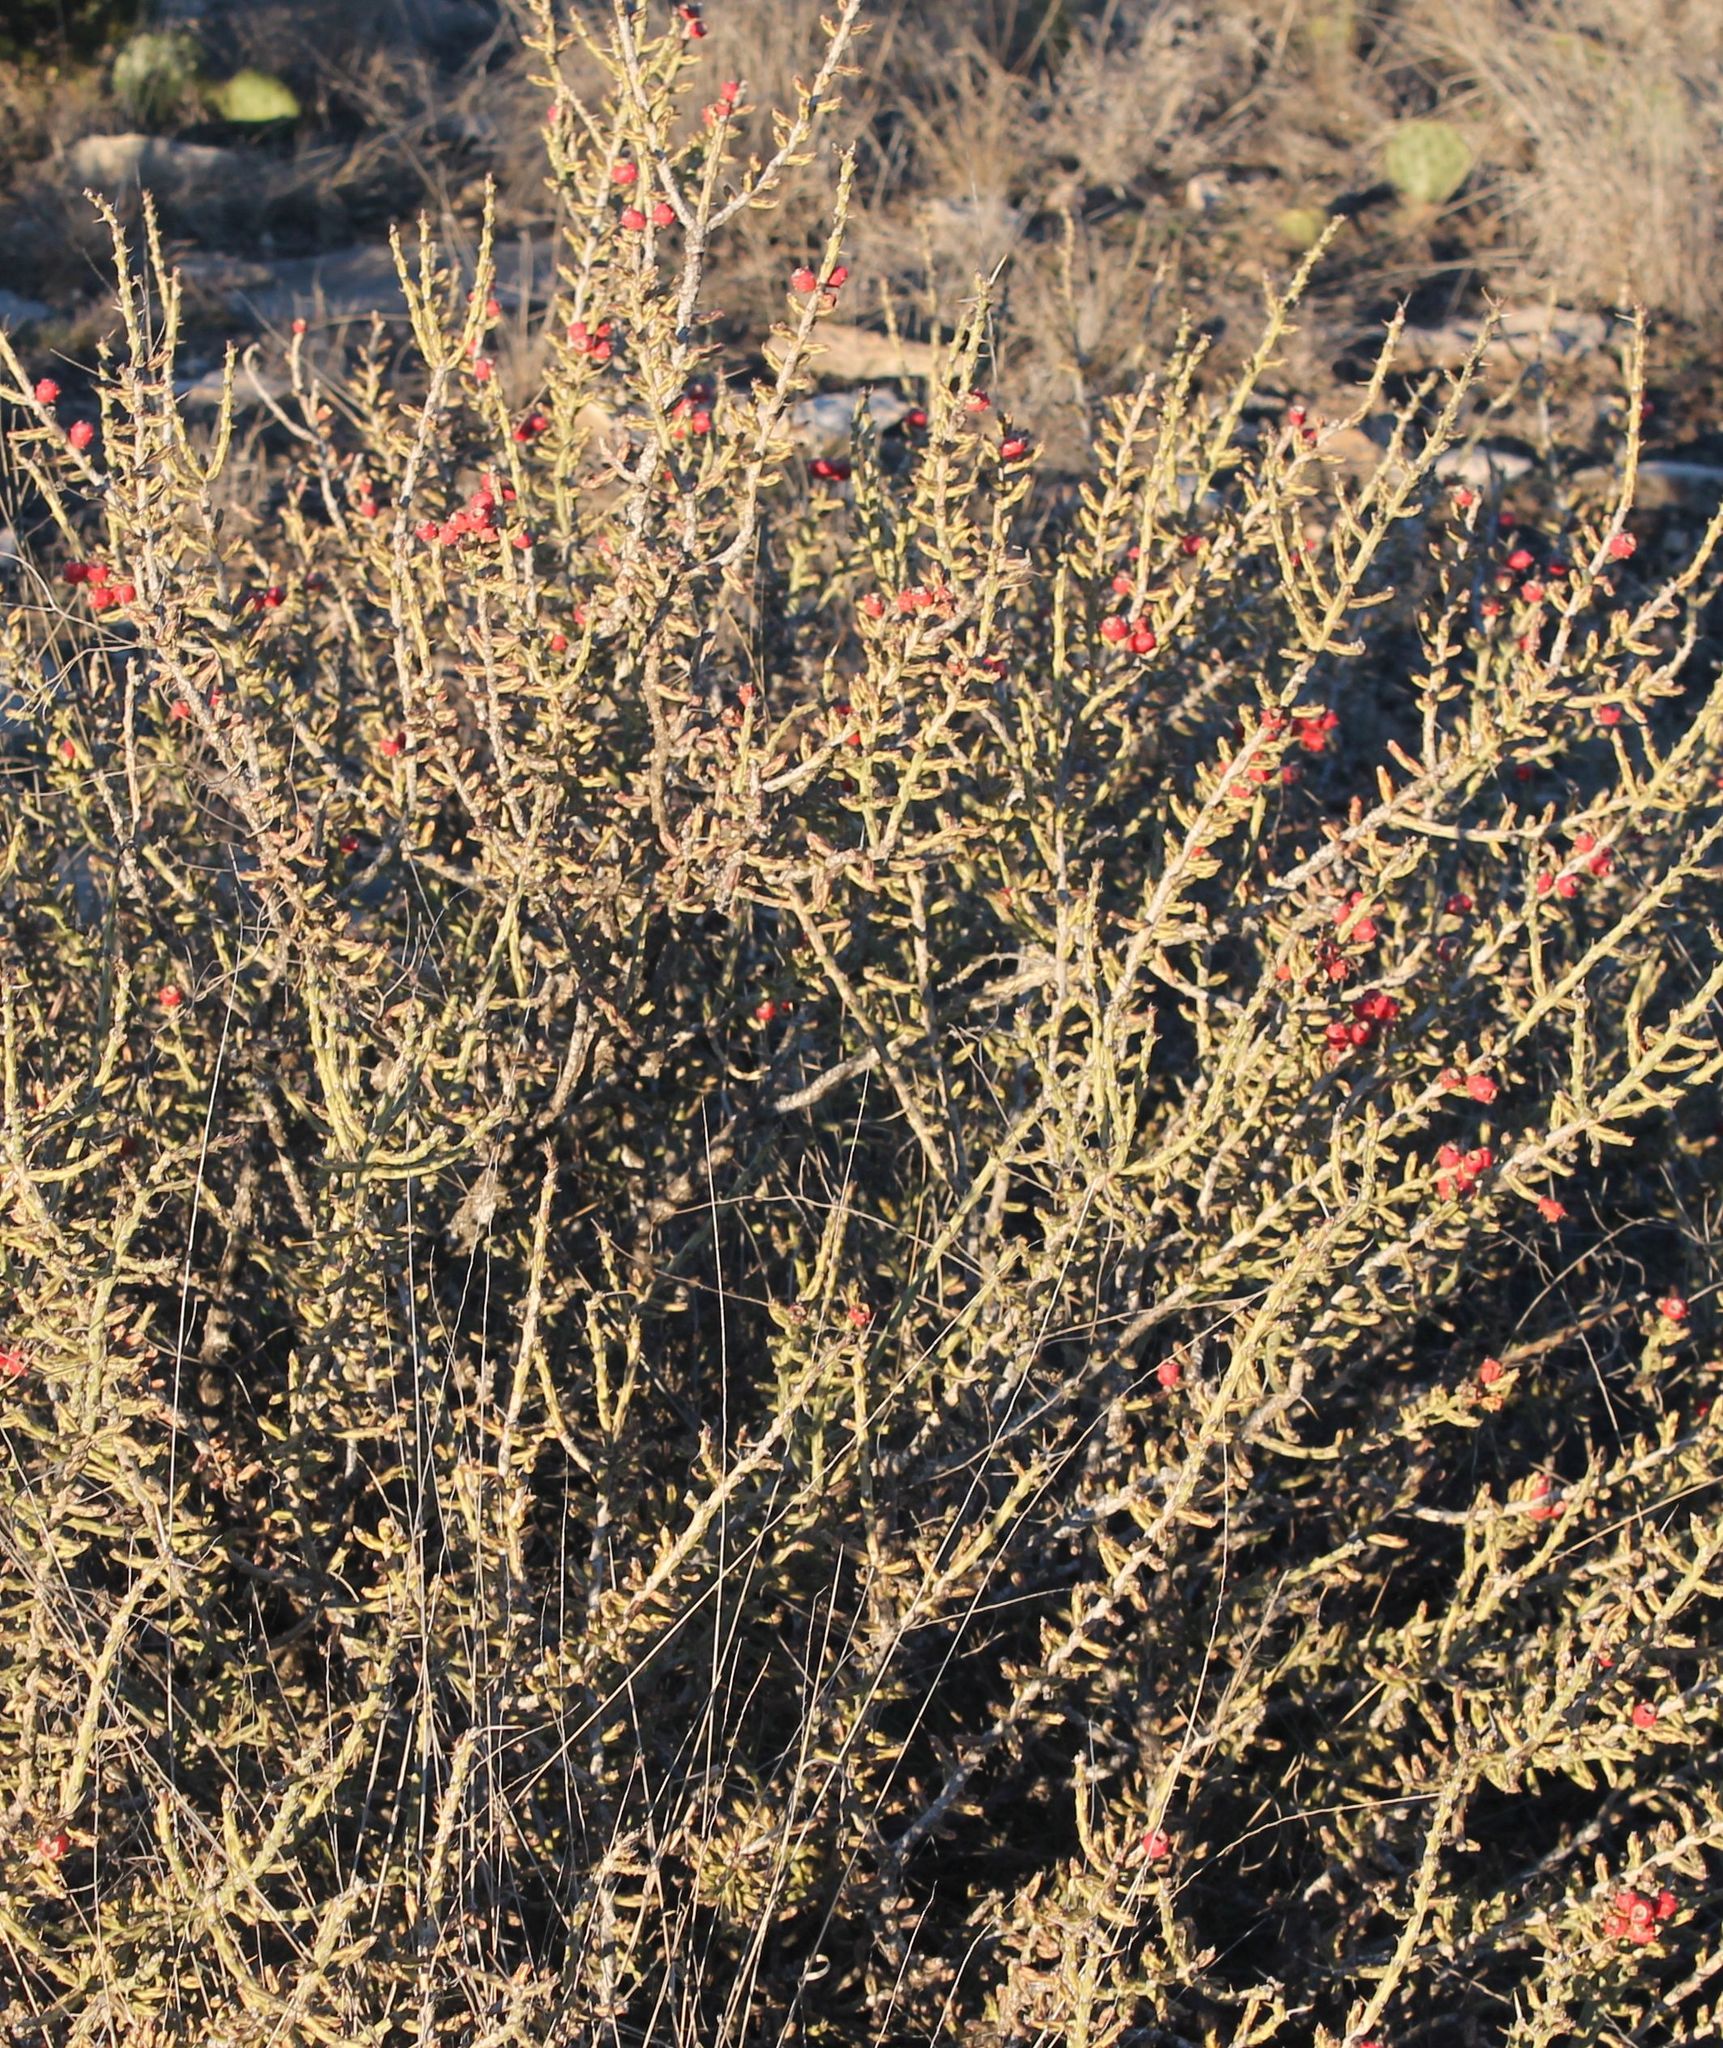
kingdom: Plantae
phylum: Tracheophyta
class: Magnoliopsida
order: Caryophyllales
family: Cactaceae
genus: Cylindropuntia
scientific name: Cylindropuntia leptocaulis
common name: Christmas cactus
